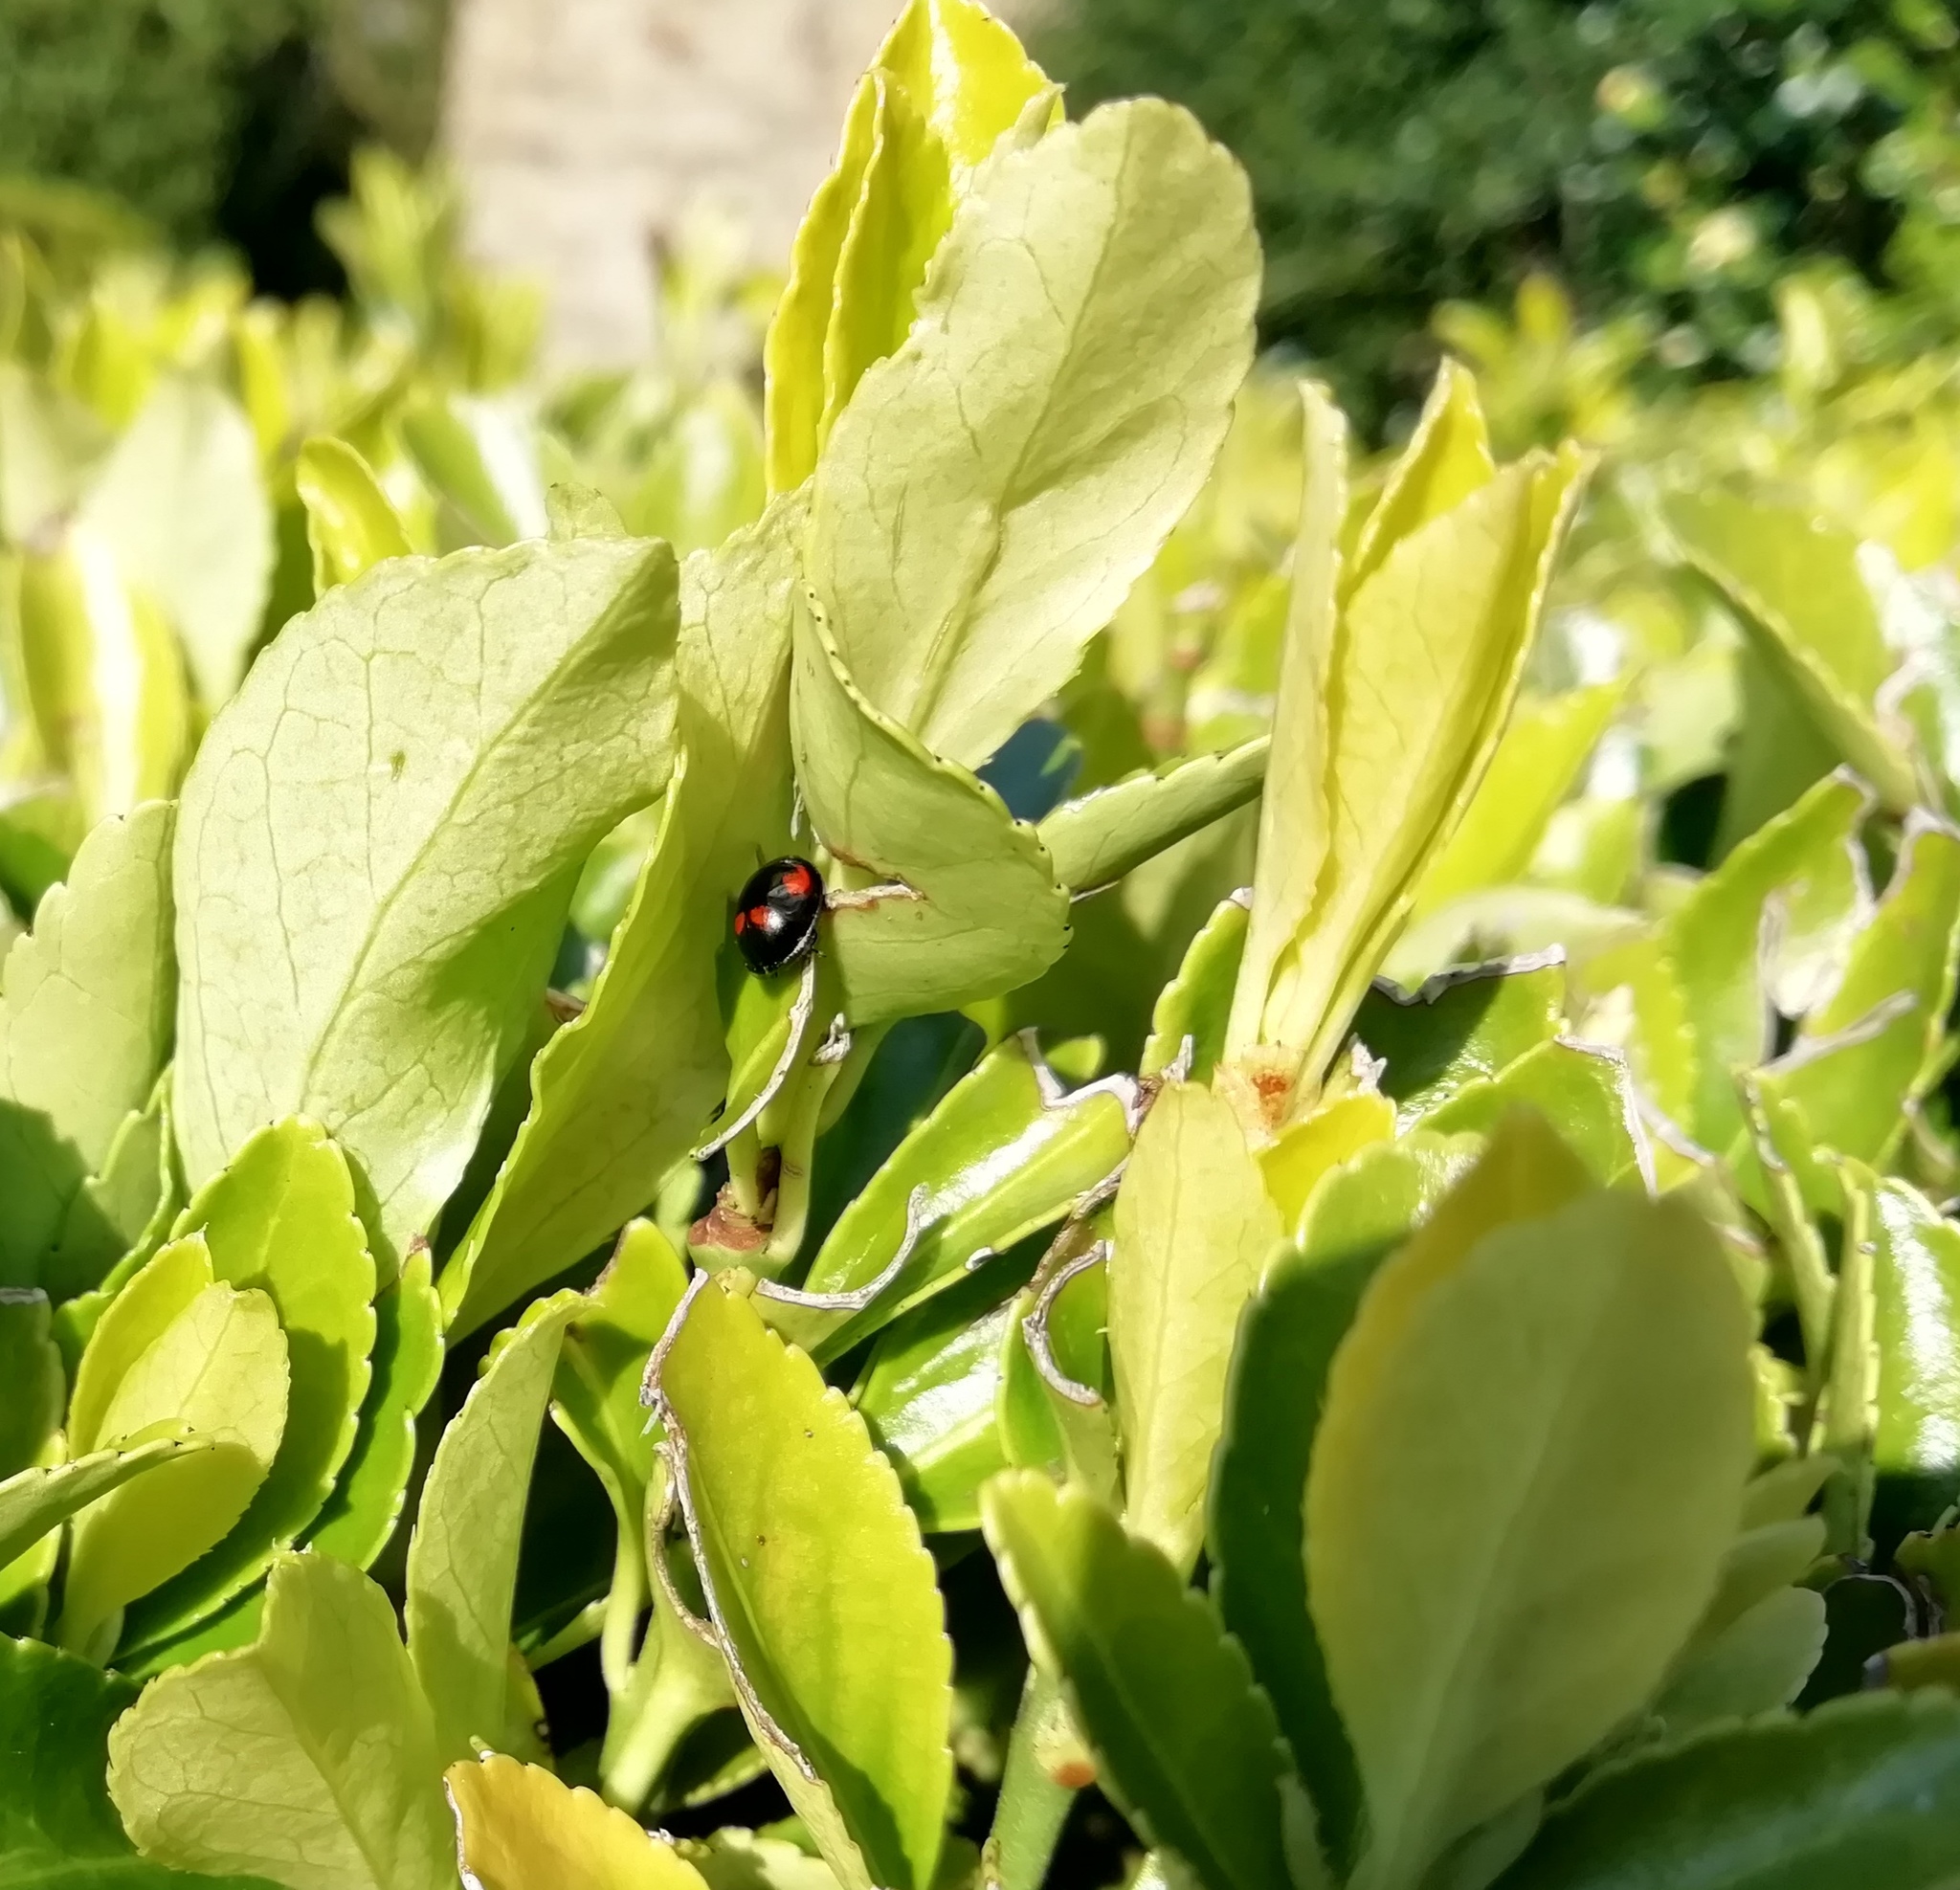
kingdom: Animalia
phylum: Arthropoda
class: Insecta
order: Coleoptera
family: Coccinellidae
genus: Brumus
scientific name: Brumus quadripustulatus
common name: Ladybird beetle
